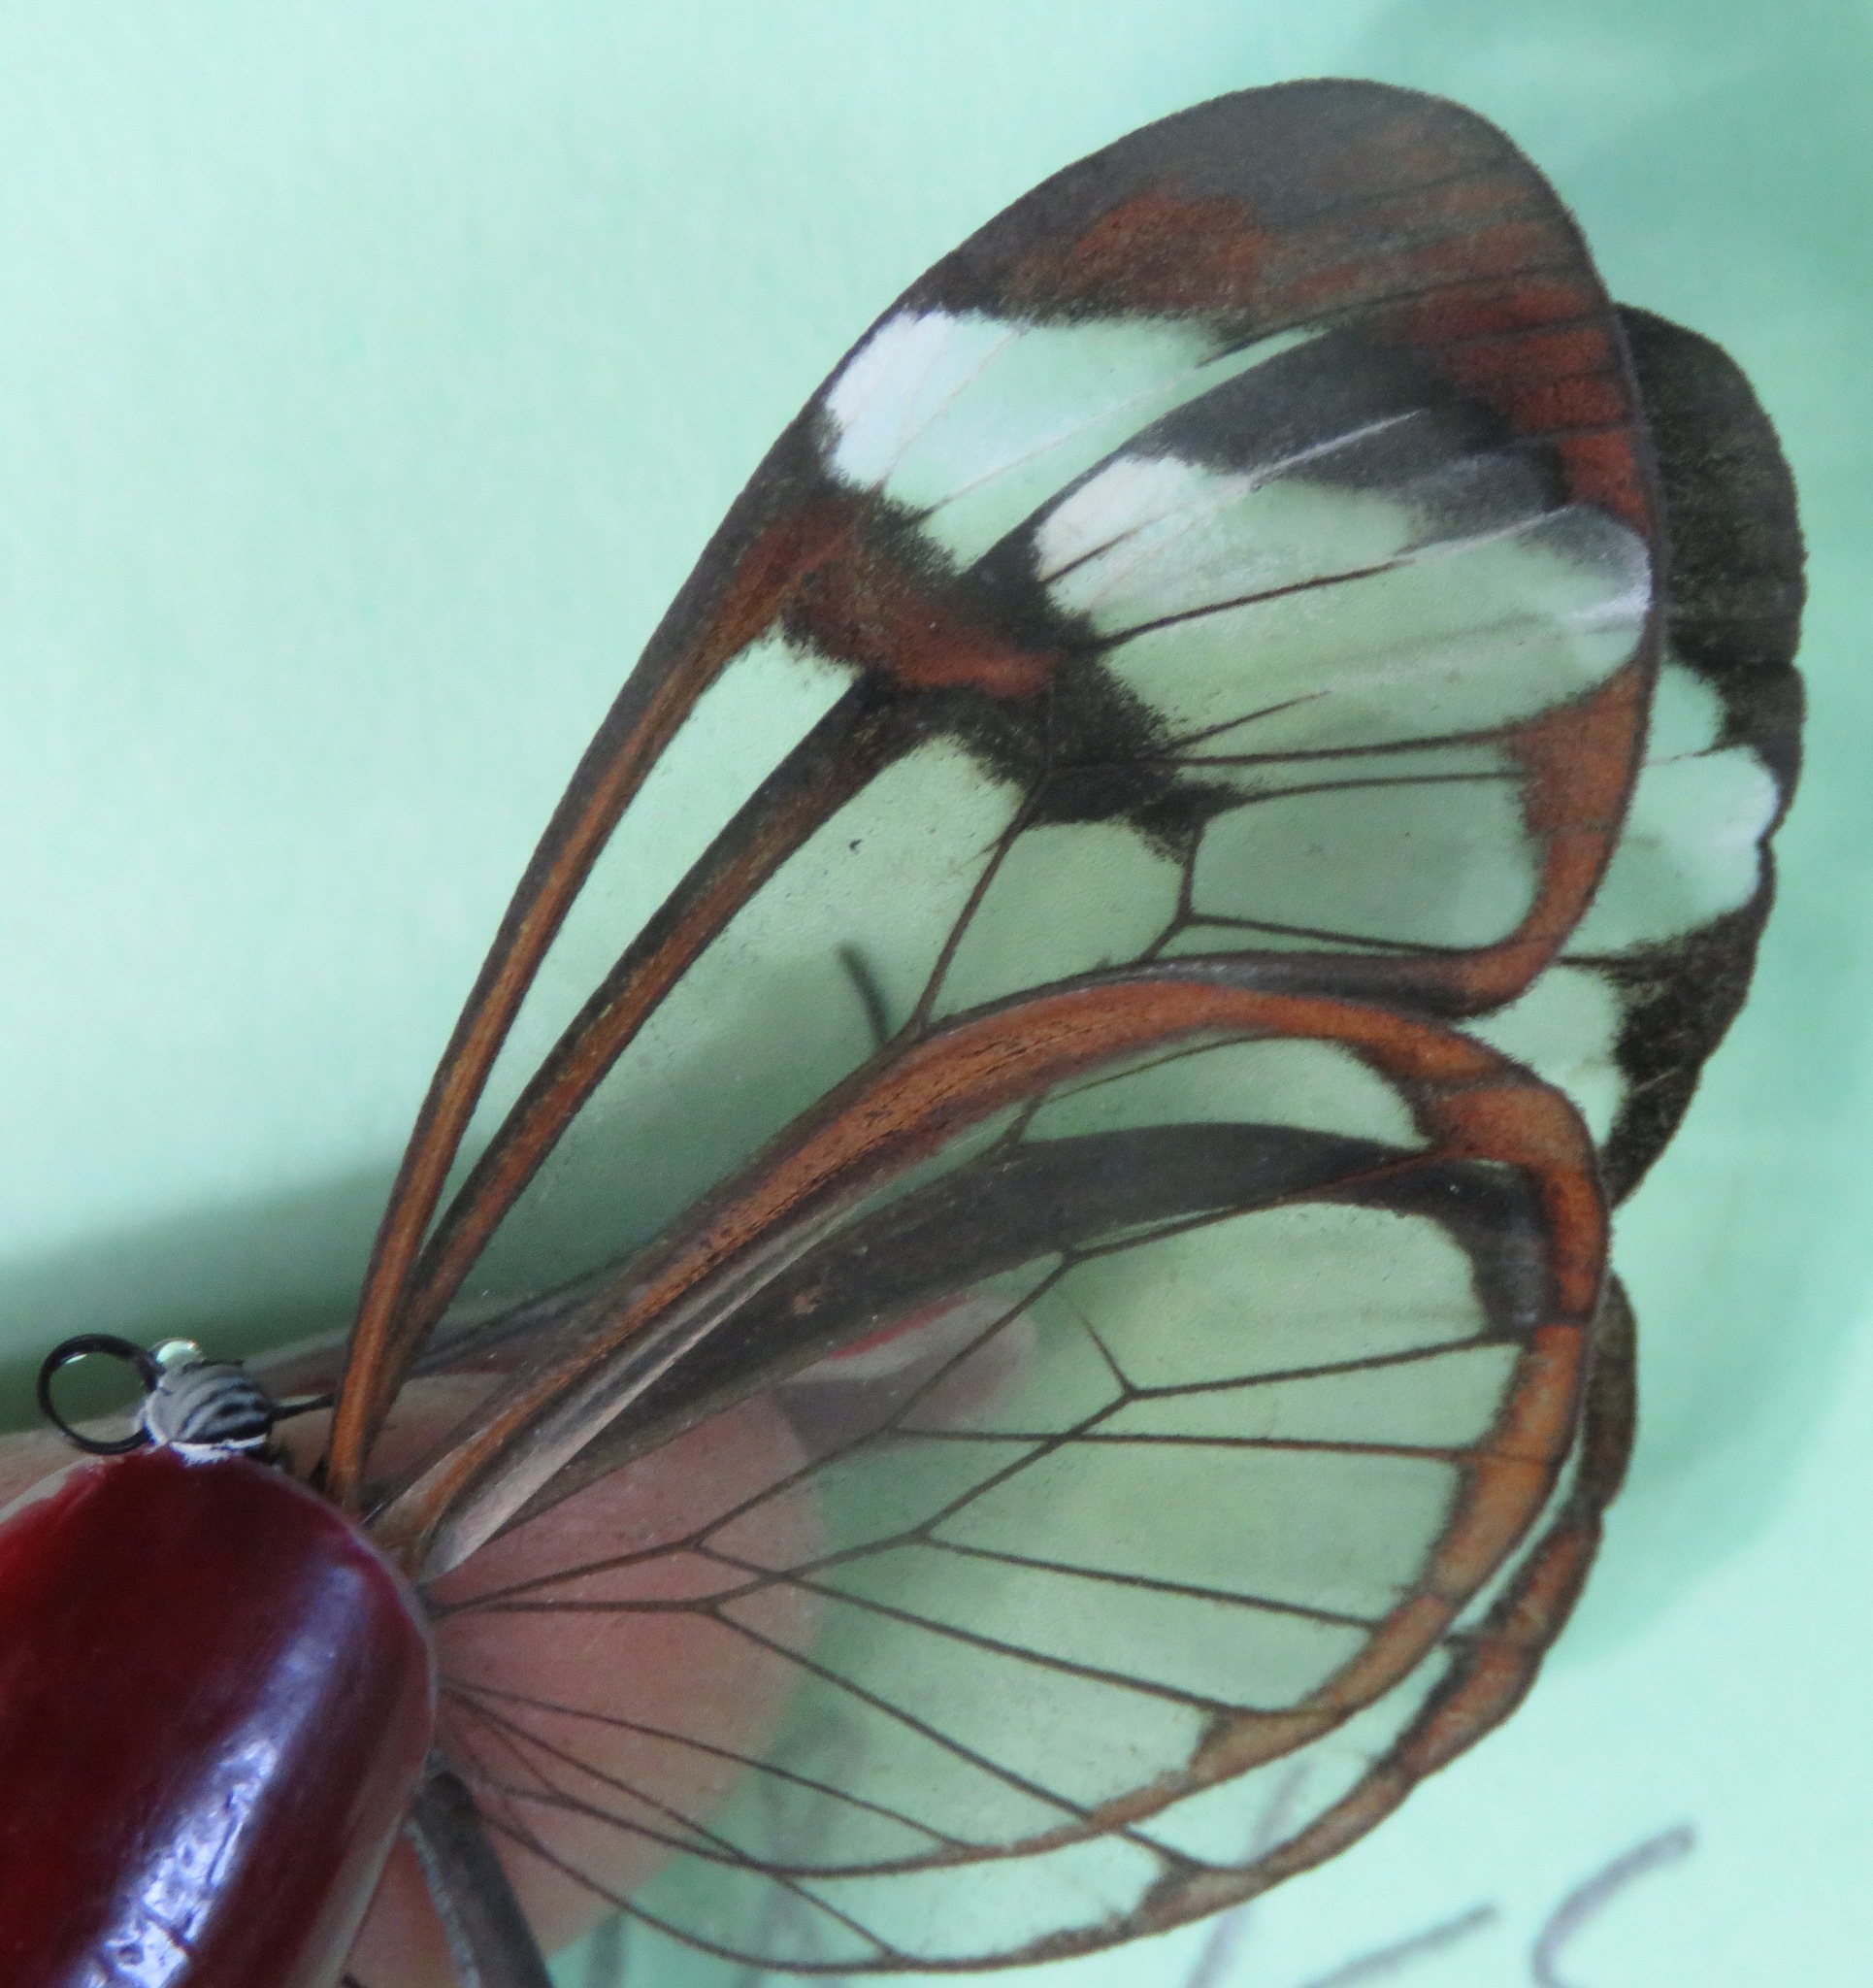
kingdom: Animalia
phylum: Arthropoda
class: Insecta
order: Lepidoptera
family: Nymphalidae
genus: Greta
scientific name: Greta morgane
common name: Thick-tipped greta
